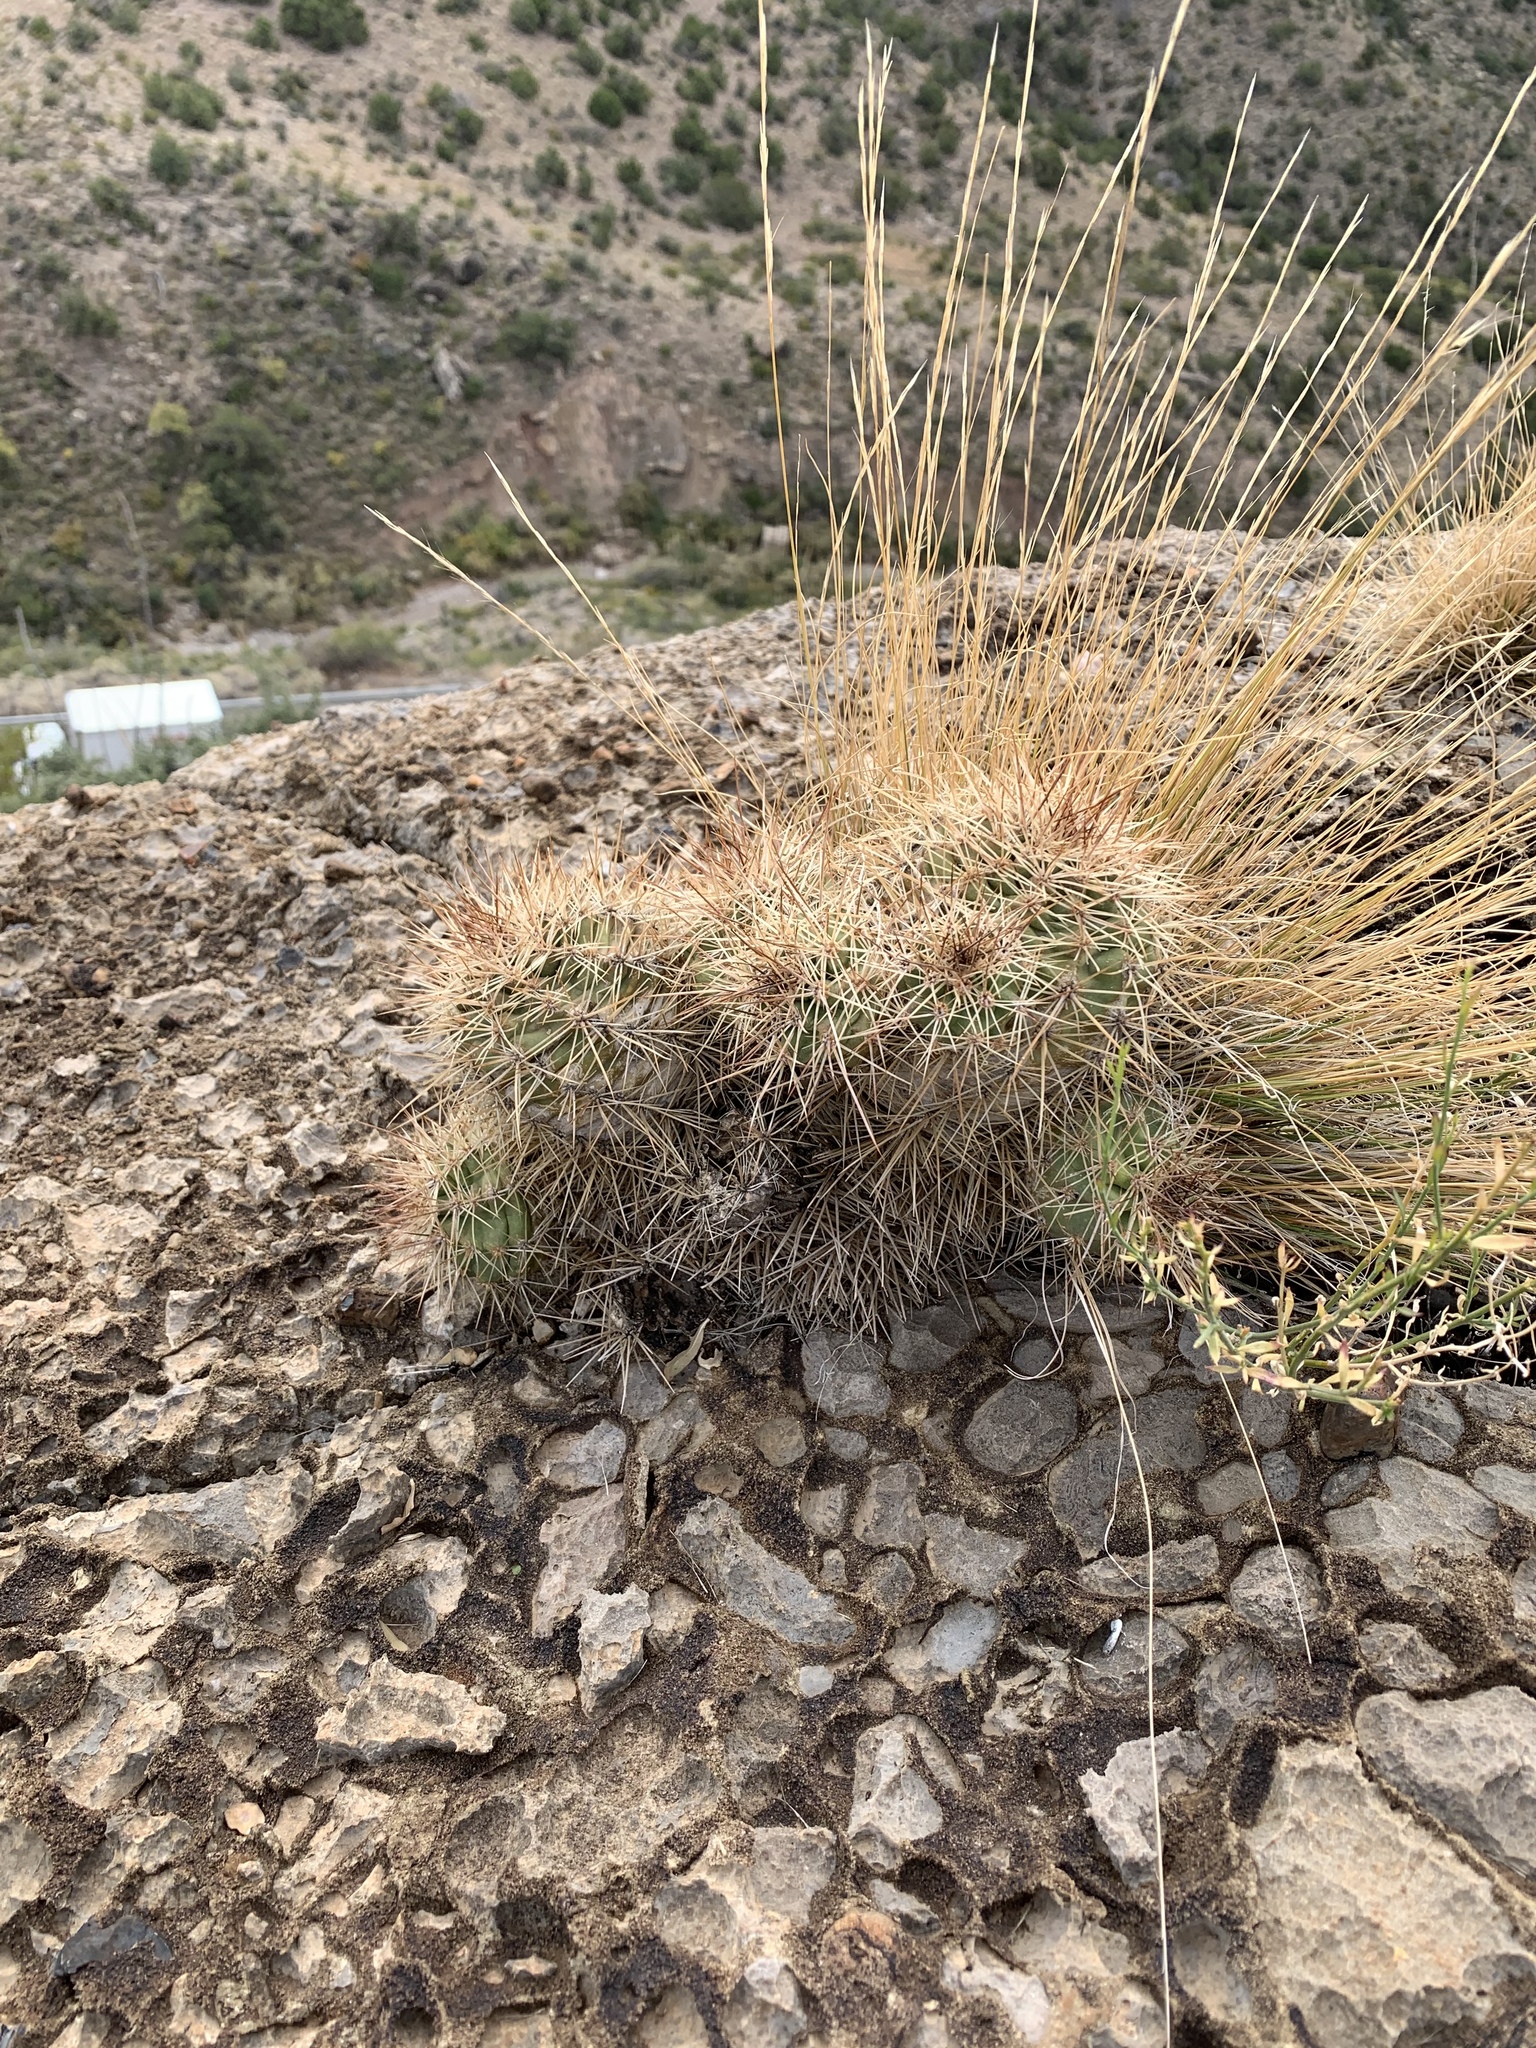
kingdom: Plantae
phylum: Tracheophyta
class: Magnoliopsida
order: Caryophyllales
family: Cactaceae
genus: Echinocereus
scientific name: Echinocereus coccineus
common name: Scarlet hedgehog cactus
